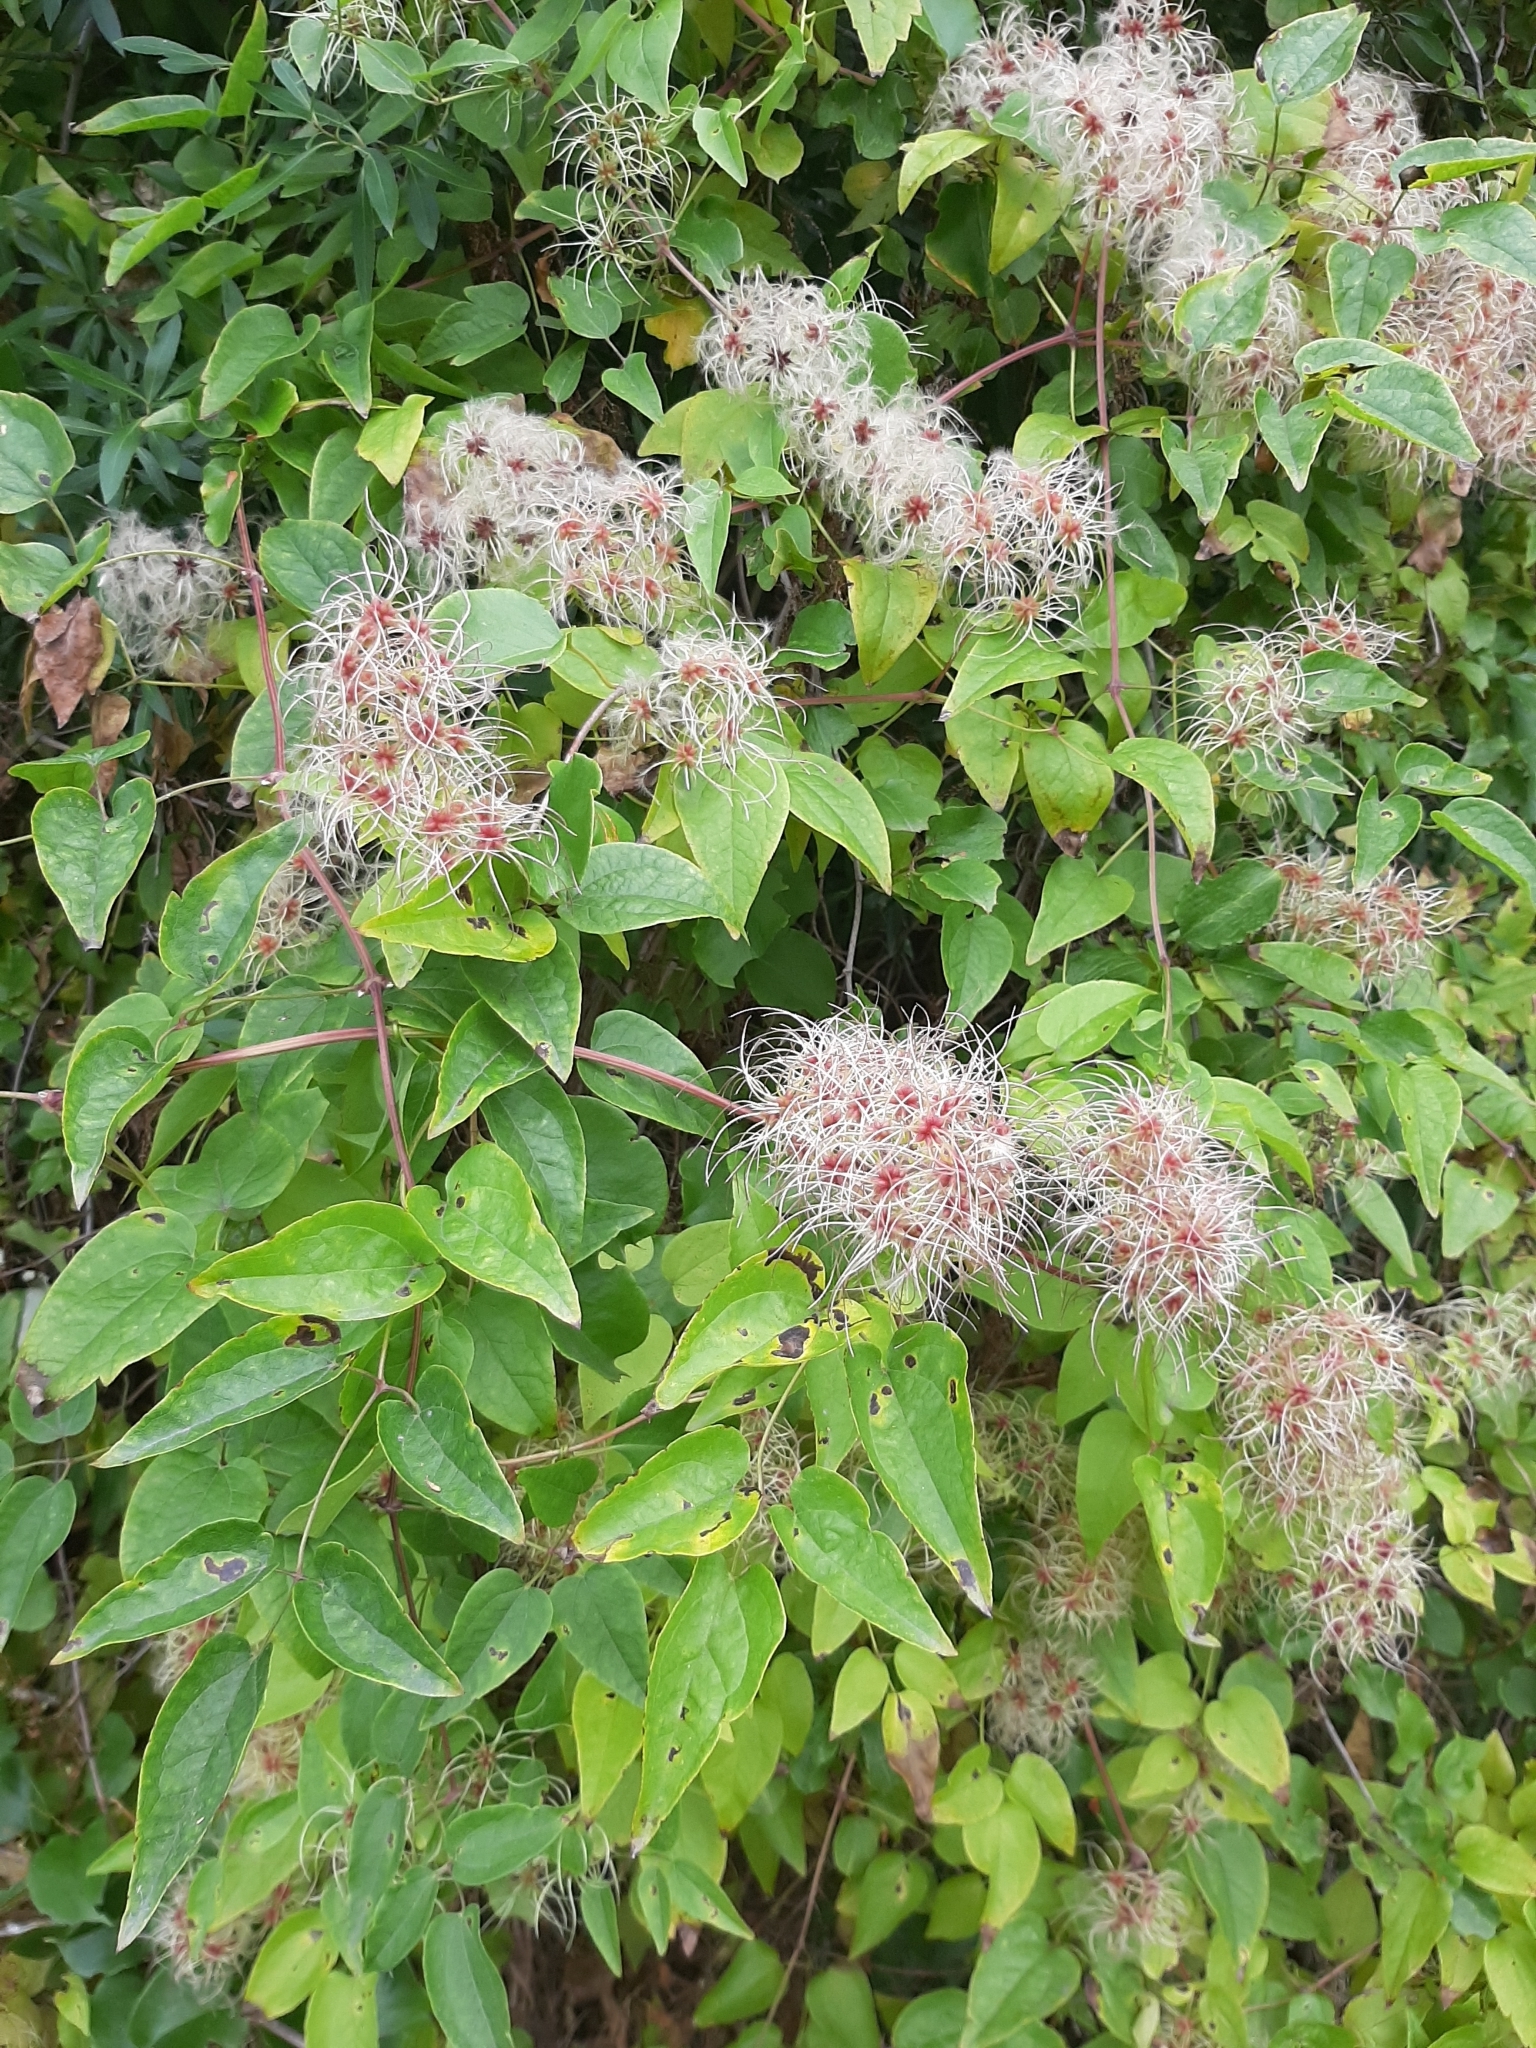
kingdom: Plantae
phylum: Tracheophyta
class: Magnoliopsida
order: Ranunculales
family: Ranunculaceae
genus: Clematis
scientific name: Clematis vitalba
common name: Evergreen clematis
